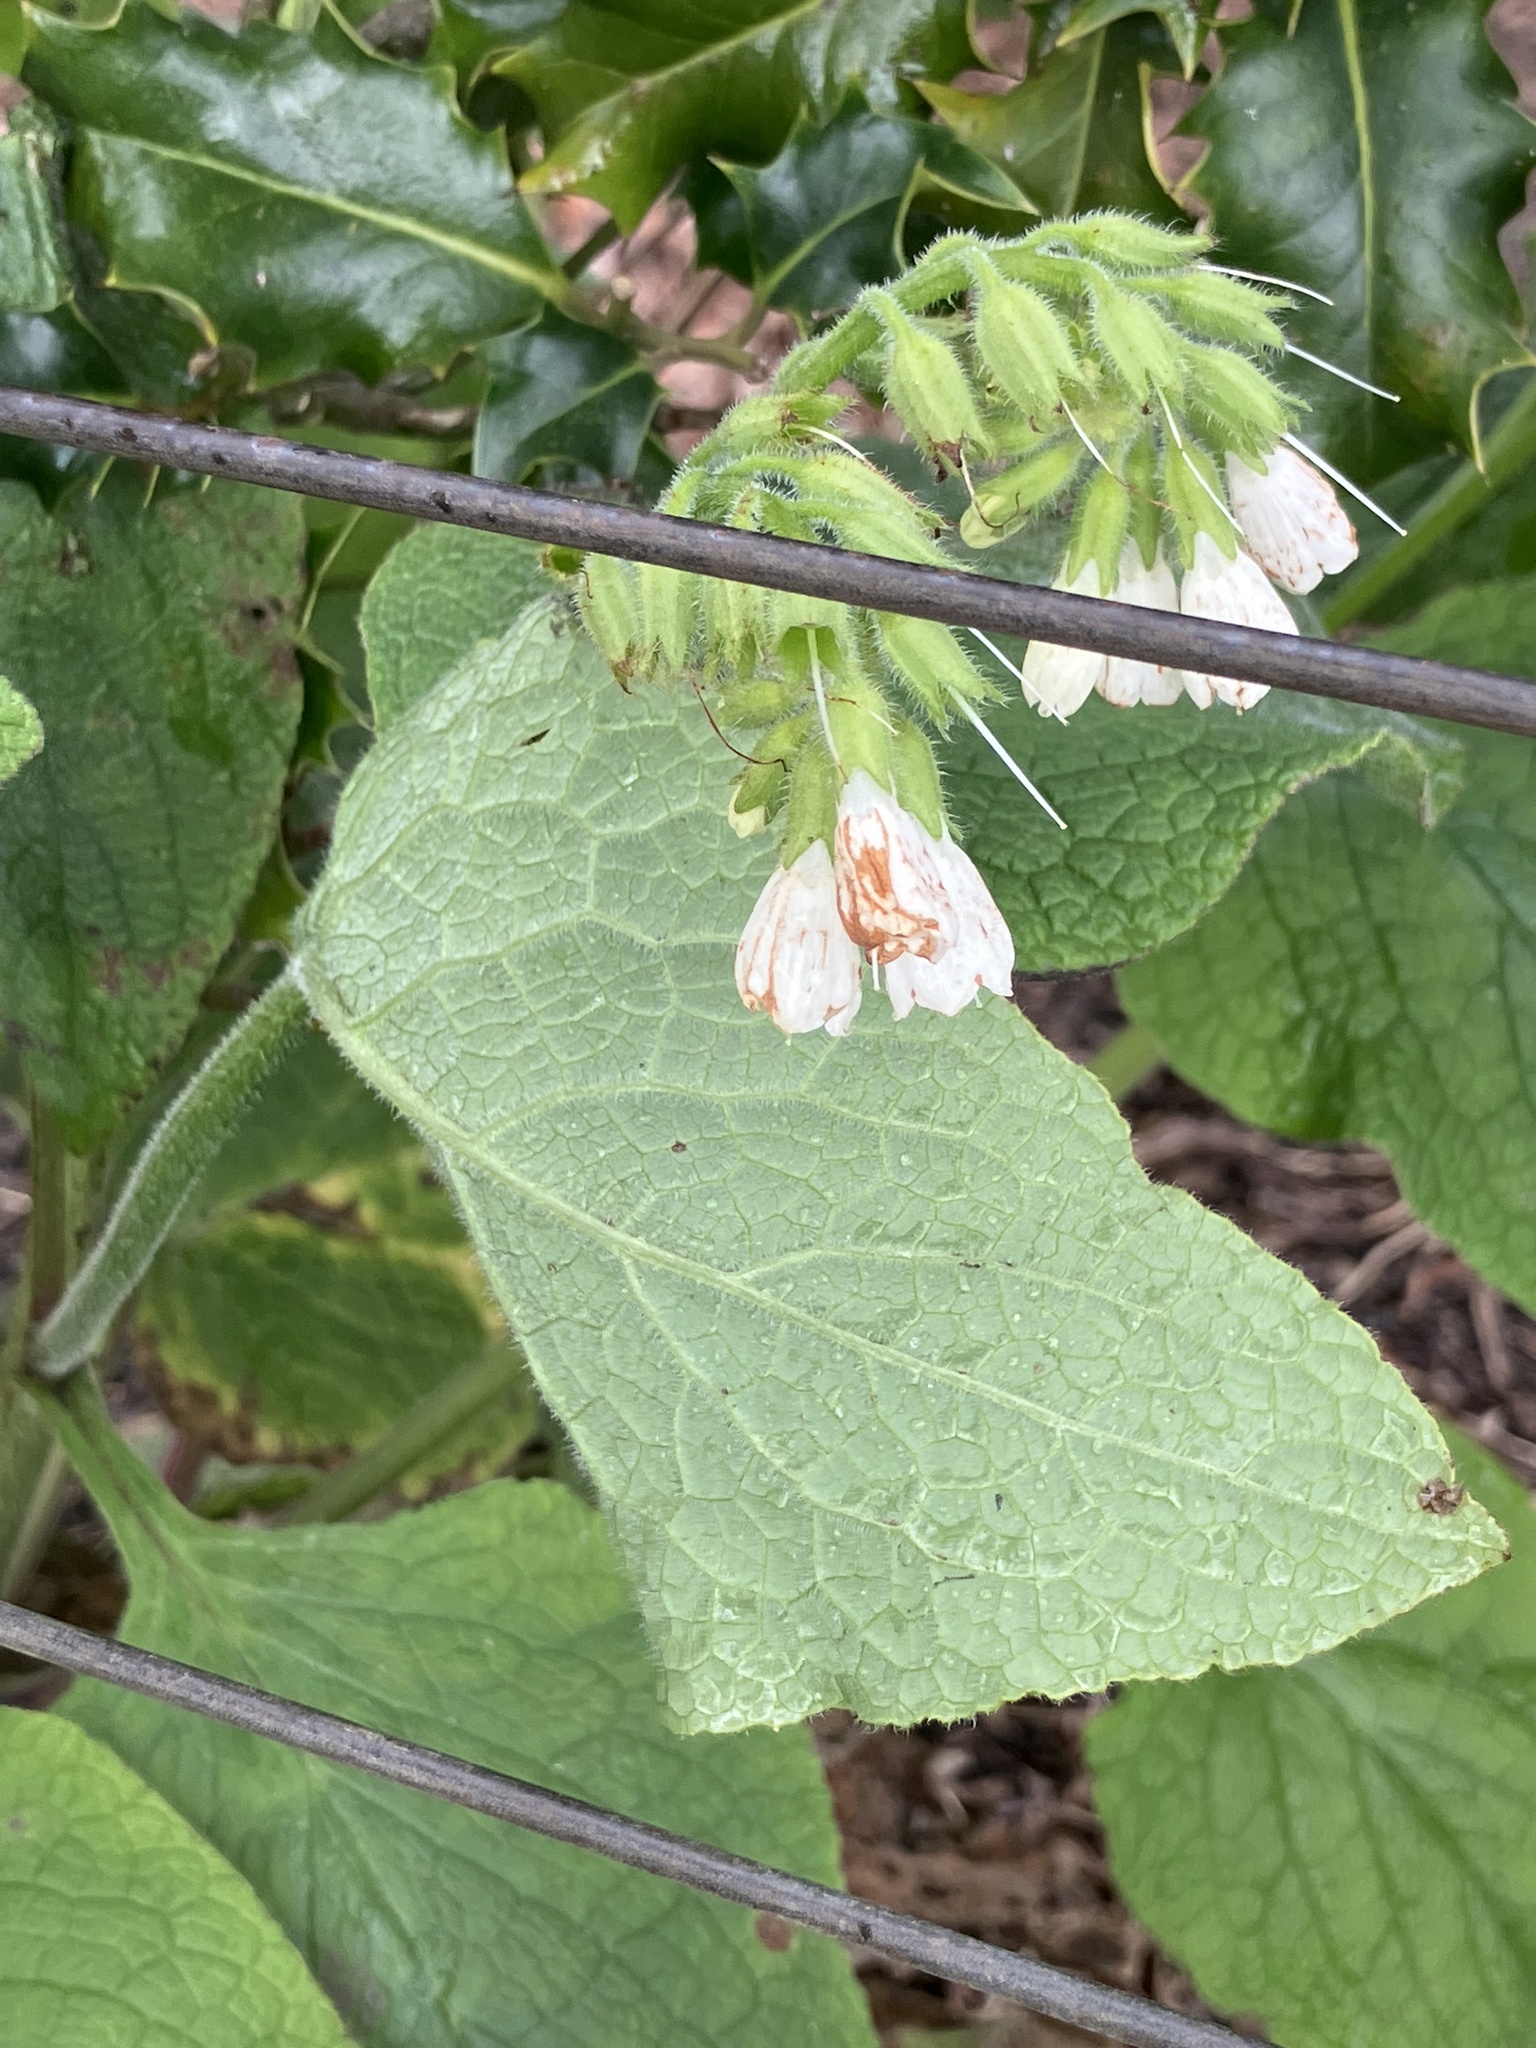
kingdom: Plantae
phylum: Tracheophyta
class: Magnoliopsida
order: Boraginales
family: Boraginaceae
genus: Symphytum
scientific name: Symphytum orientale
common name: White comfrey
